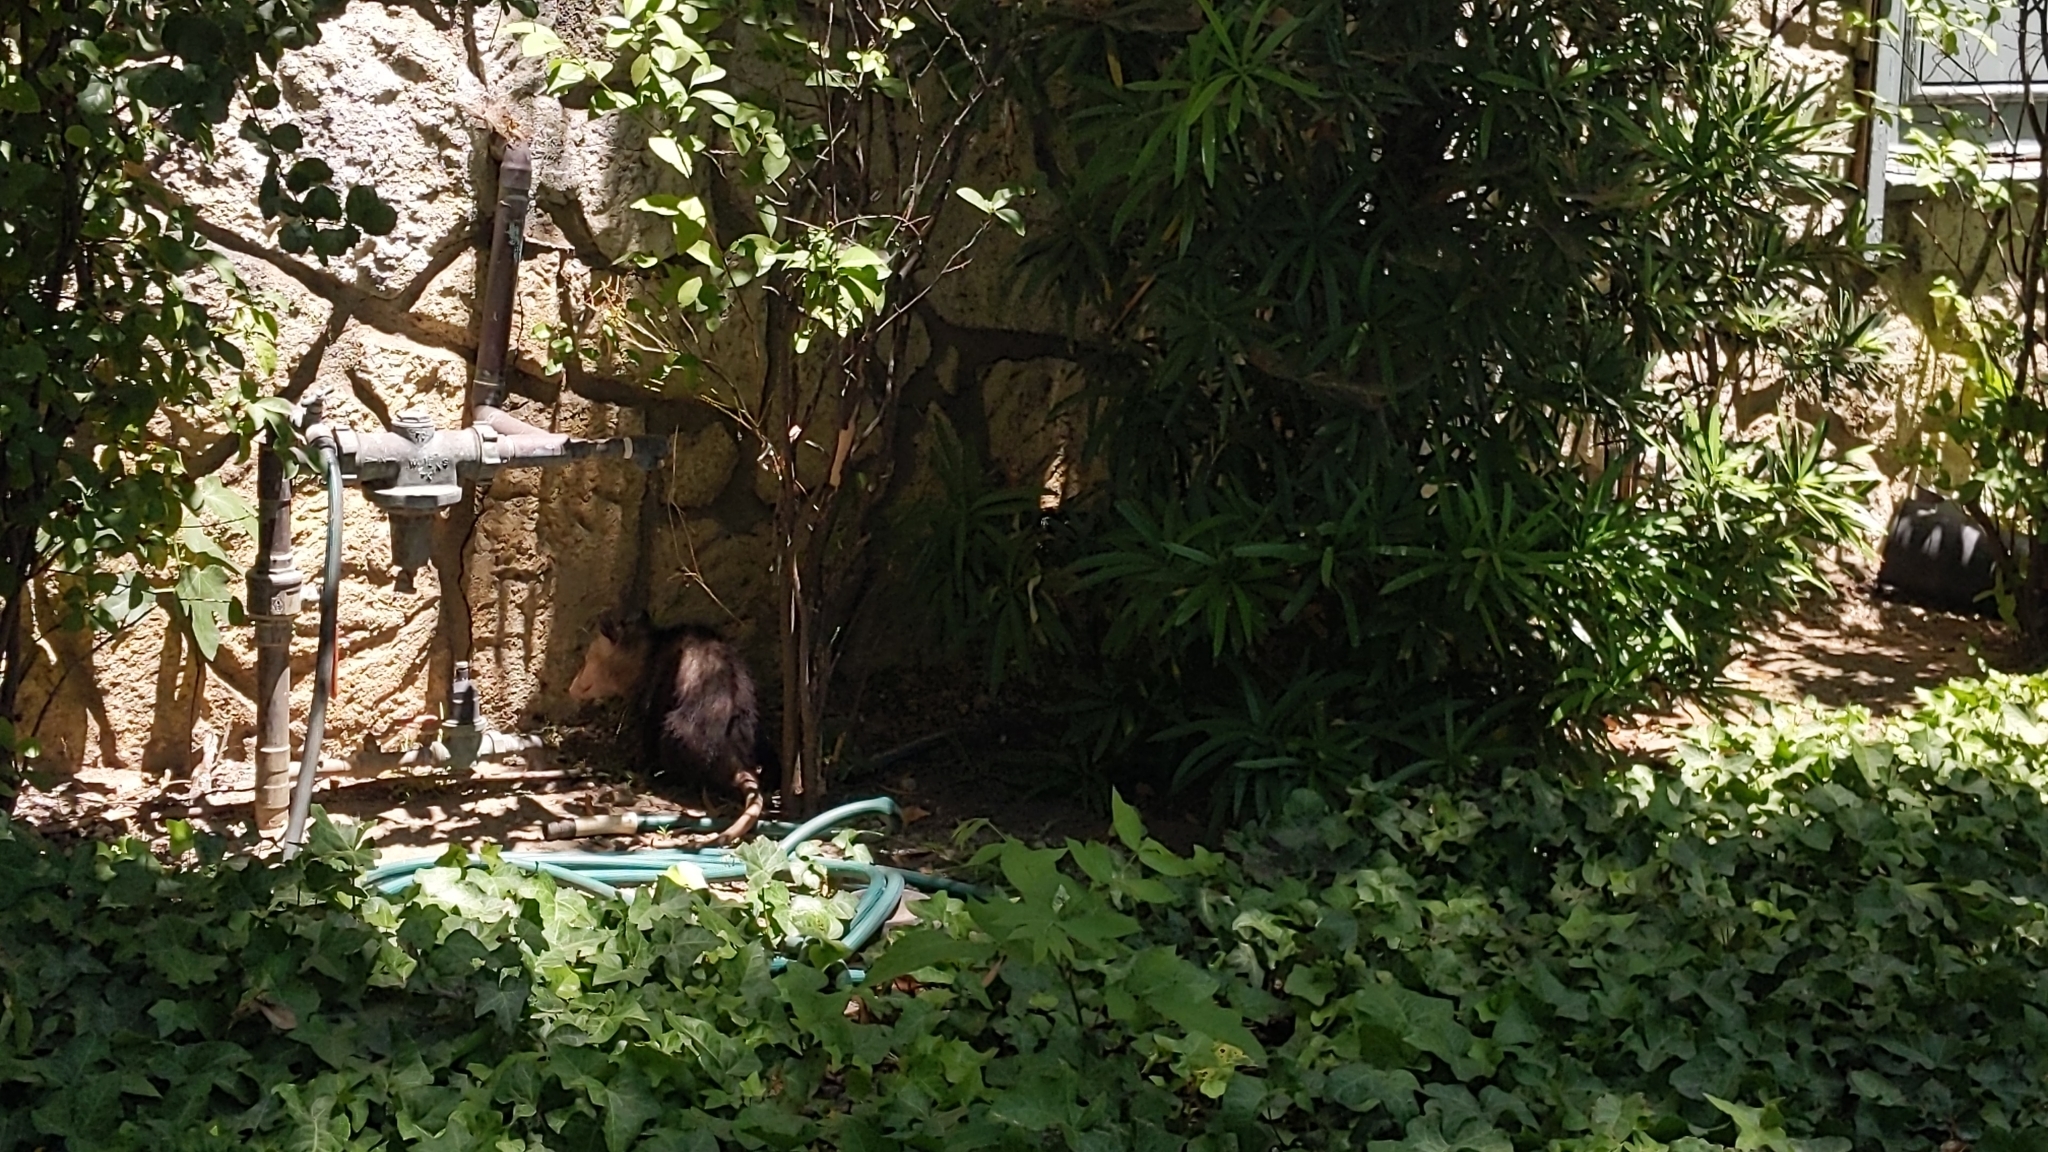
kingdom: Animalia
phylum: Chordata
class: Mammalia
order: Didelphimorphia
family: Didelphidae
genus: Didelphis
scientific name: Didelphis virginiana
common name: Virginia opossum
